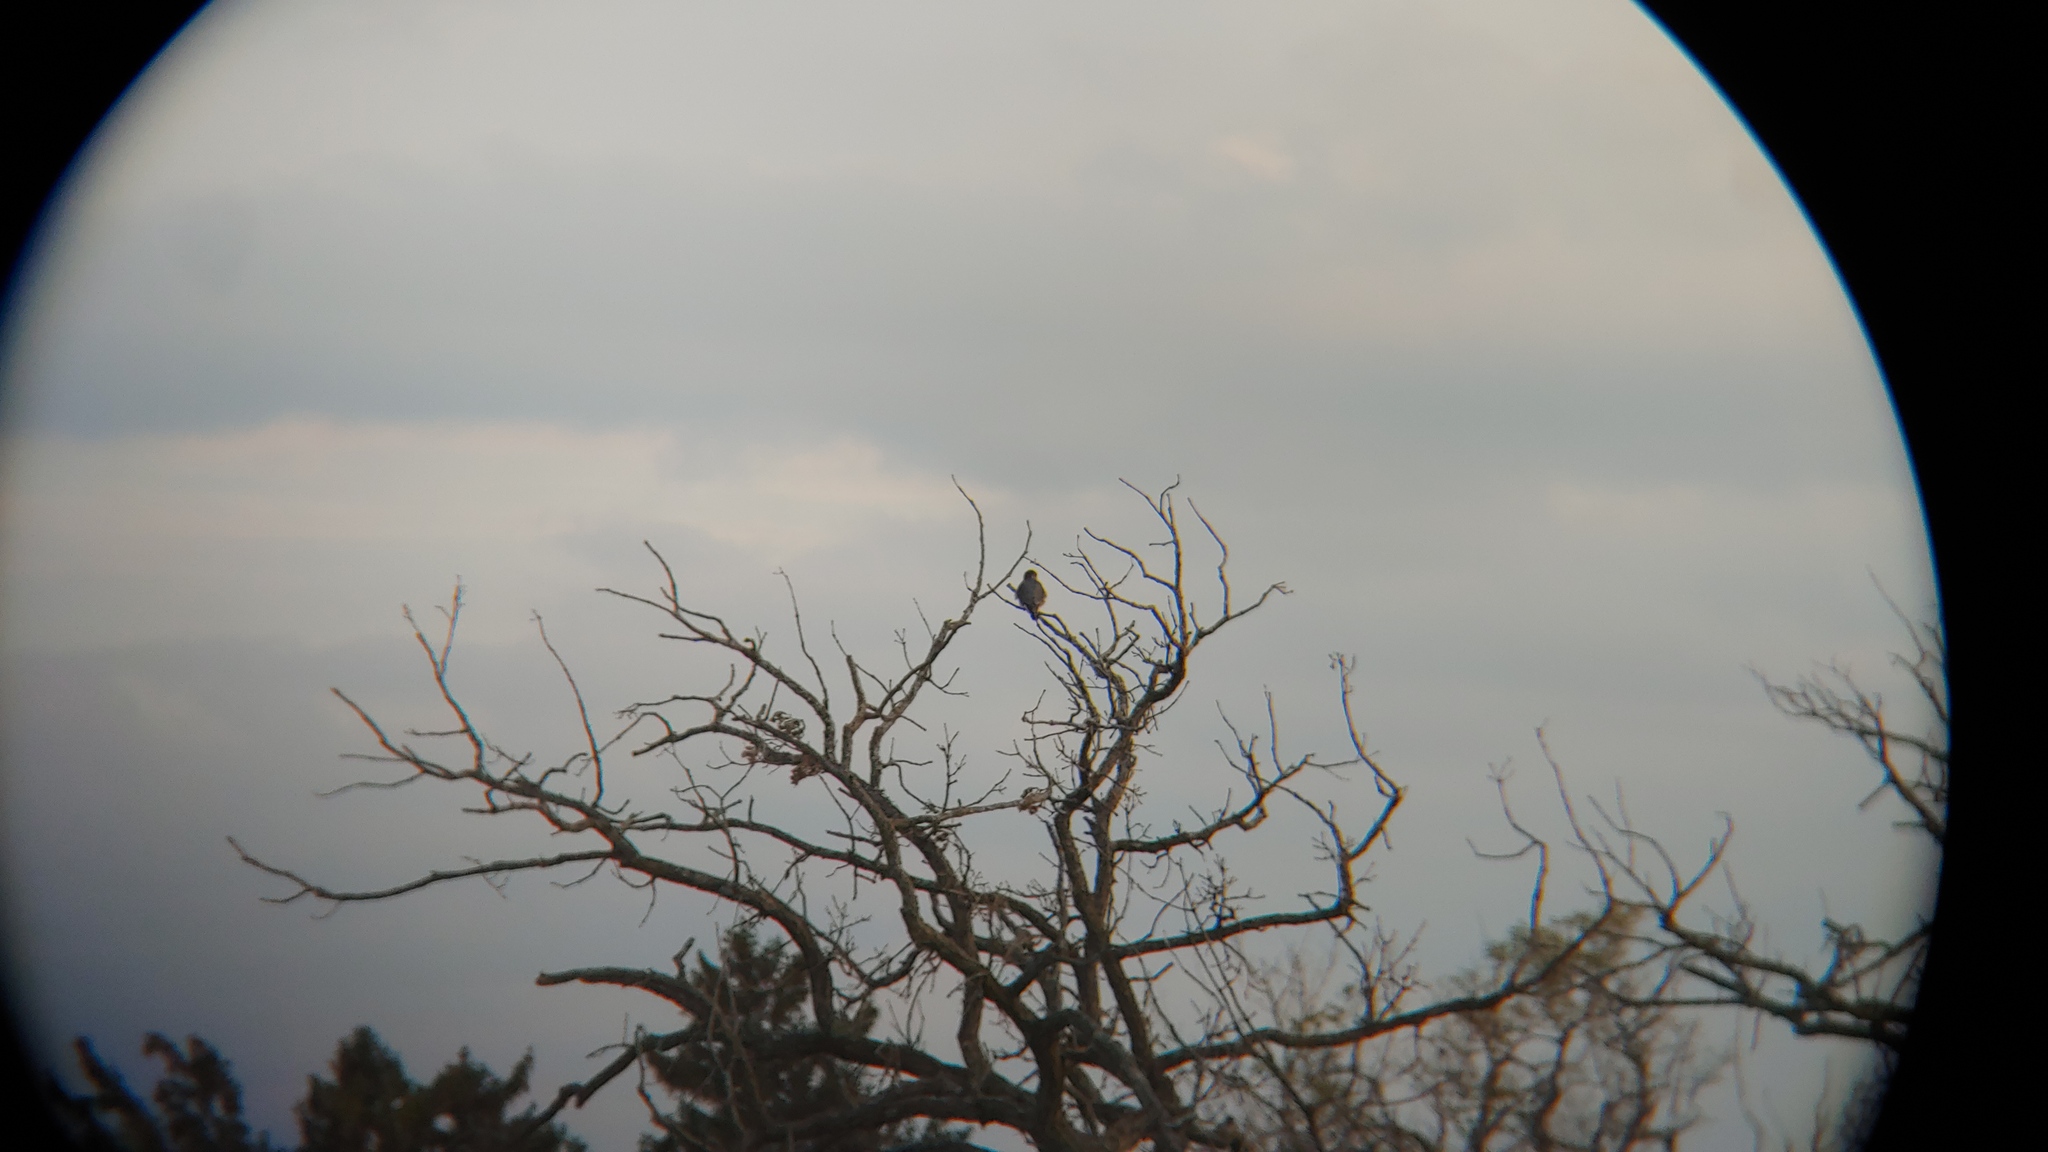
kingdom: Animalia
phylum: Chordata
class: Aves
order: Falconiformes
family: Falconidae
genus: Falco
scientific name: Falco columbarius
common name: Merlin
